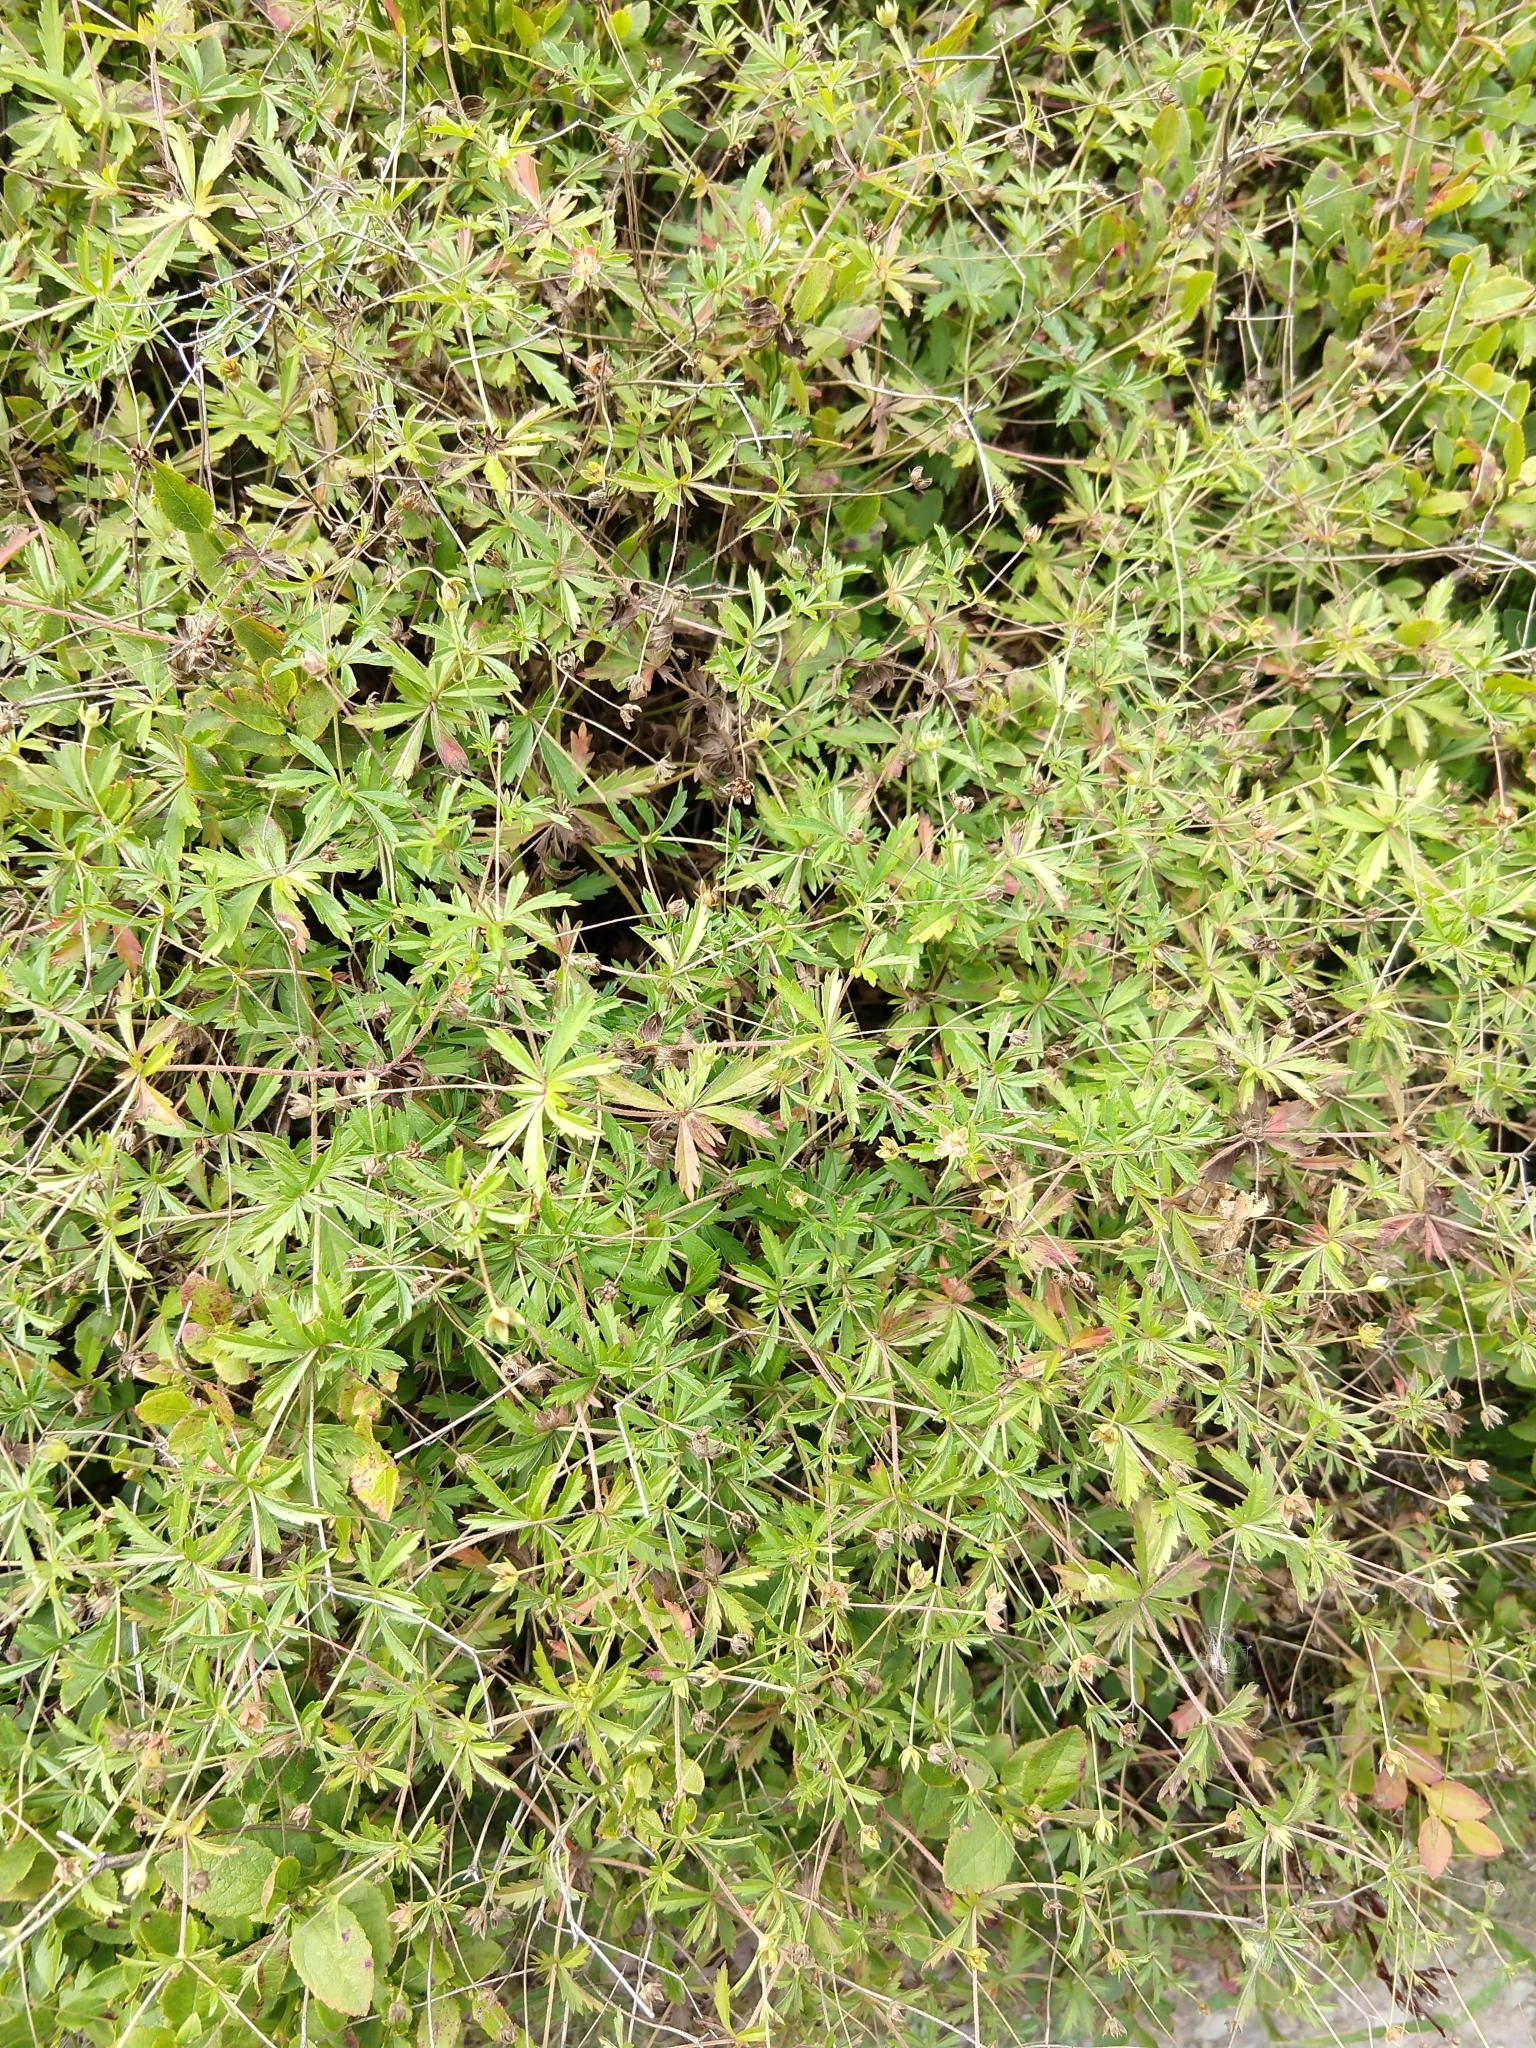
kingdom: Plantae
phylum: Tracheophyta
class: Magnoliopsida
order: Rosales
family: Rosaceae
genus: Potentilla
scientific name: Potentilla erecta
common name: Tormentil
